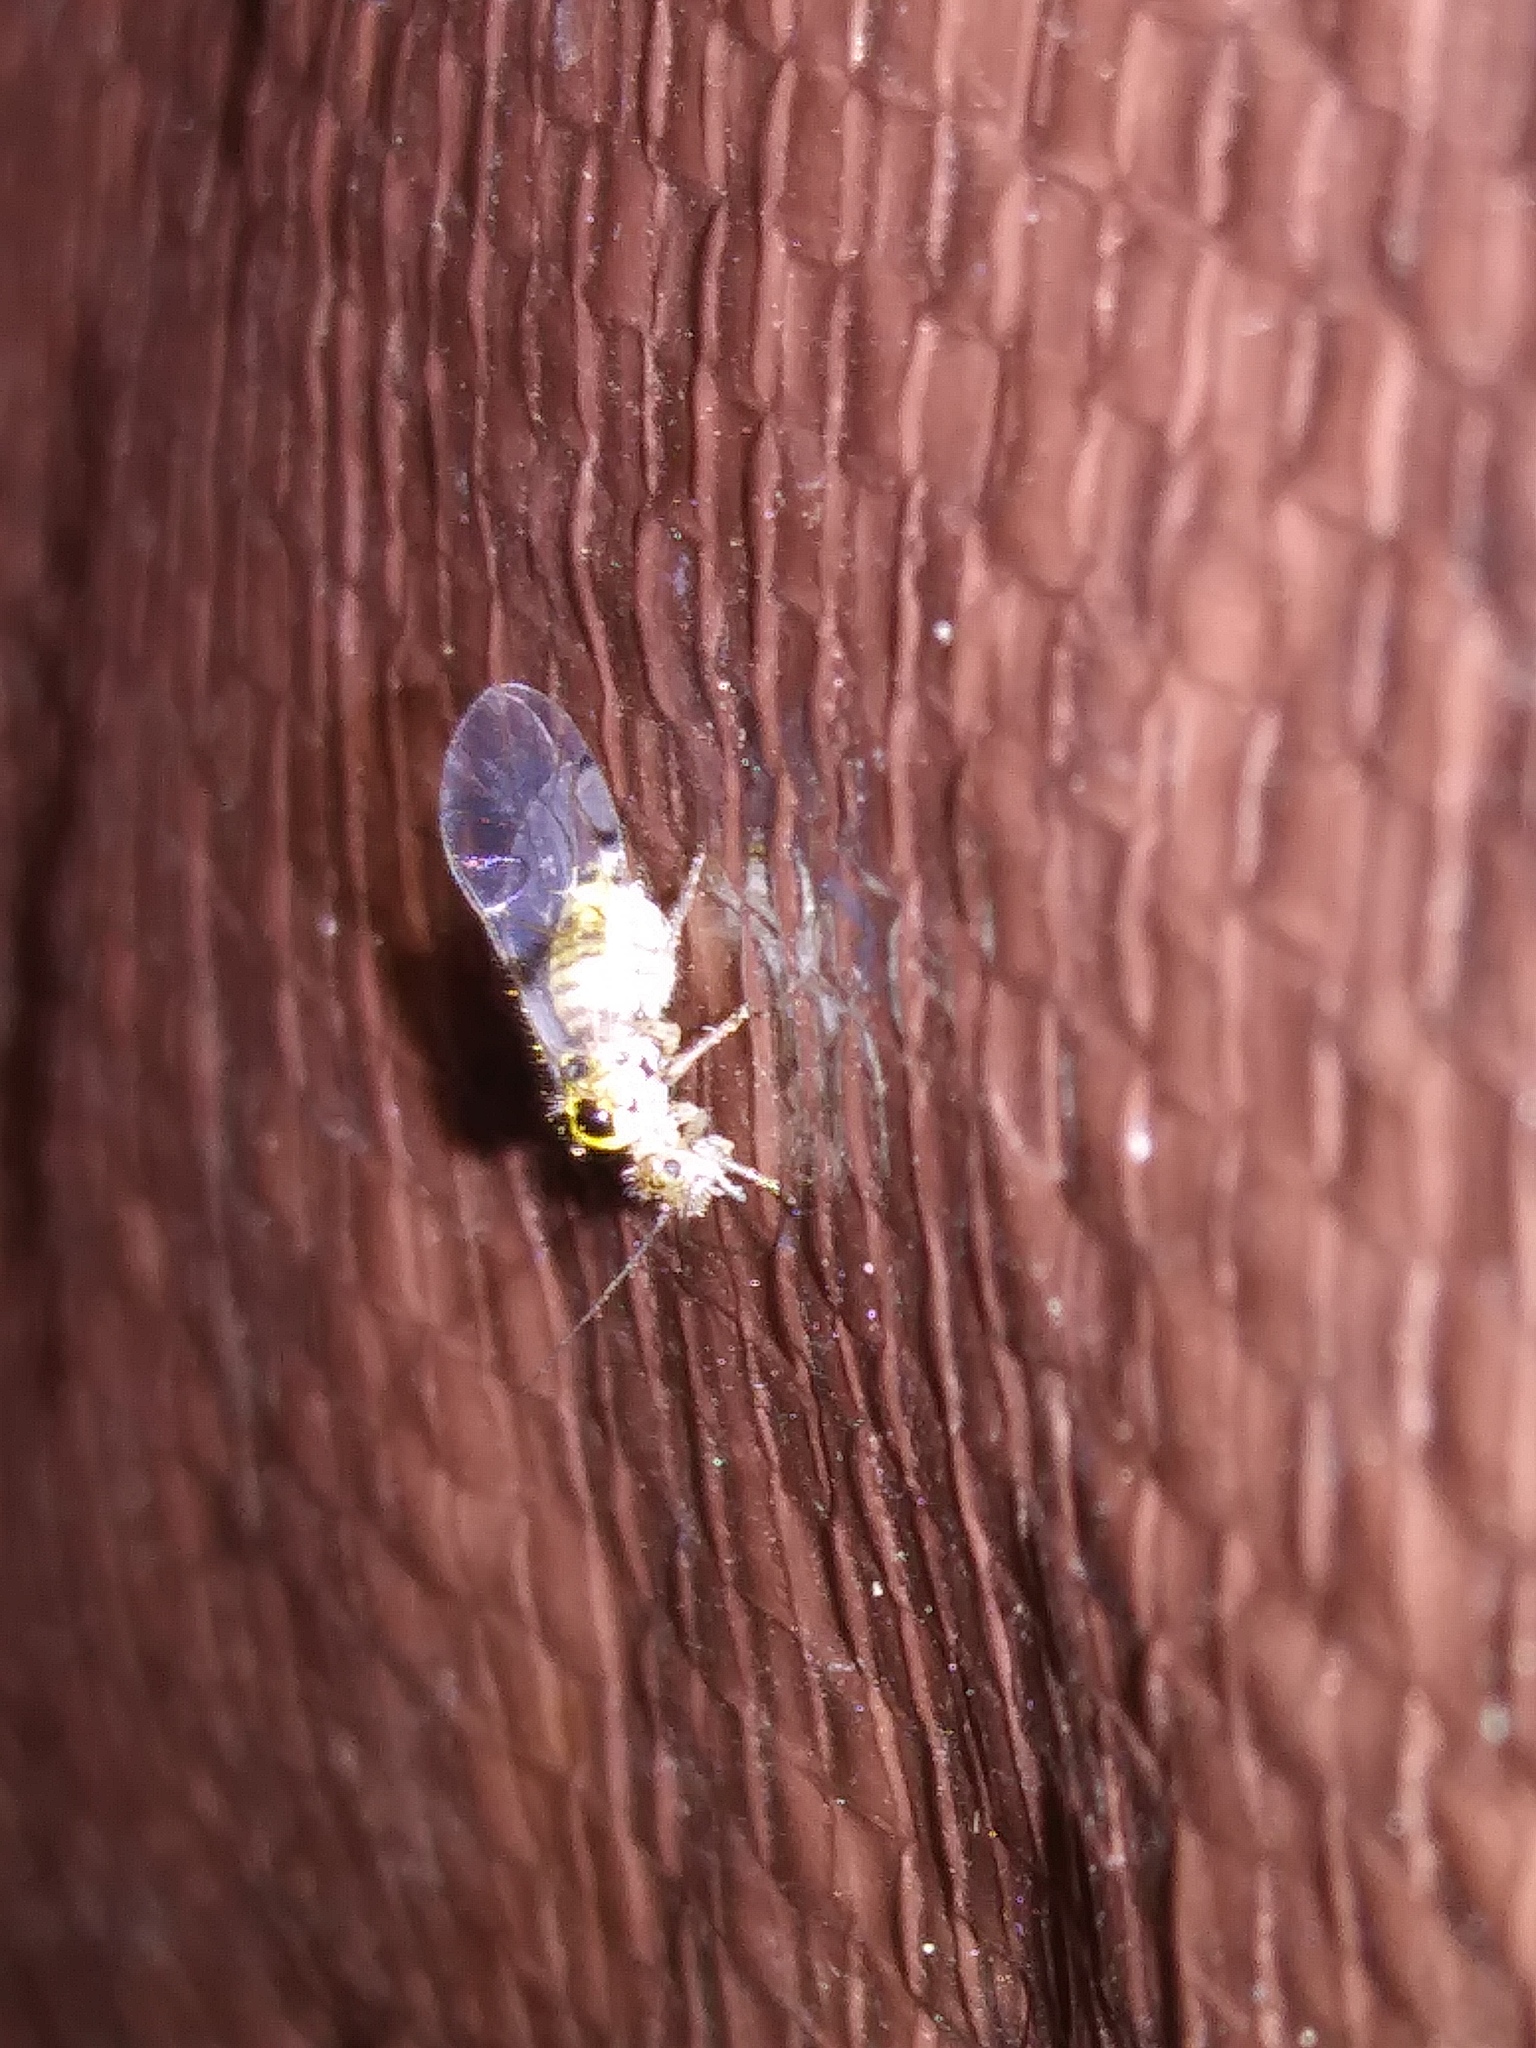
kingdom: Animalia
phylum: Arthropoda
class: Insecta
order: Psocodea
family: Dasydemellidae
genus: Teliapsocus
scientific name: Teliapsocus conterminus
